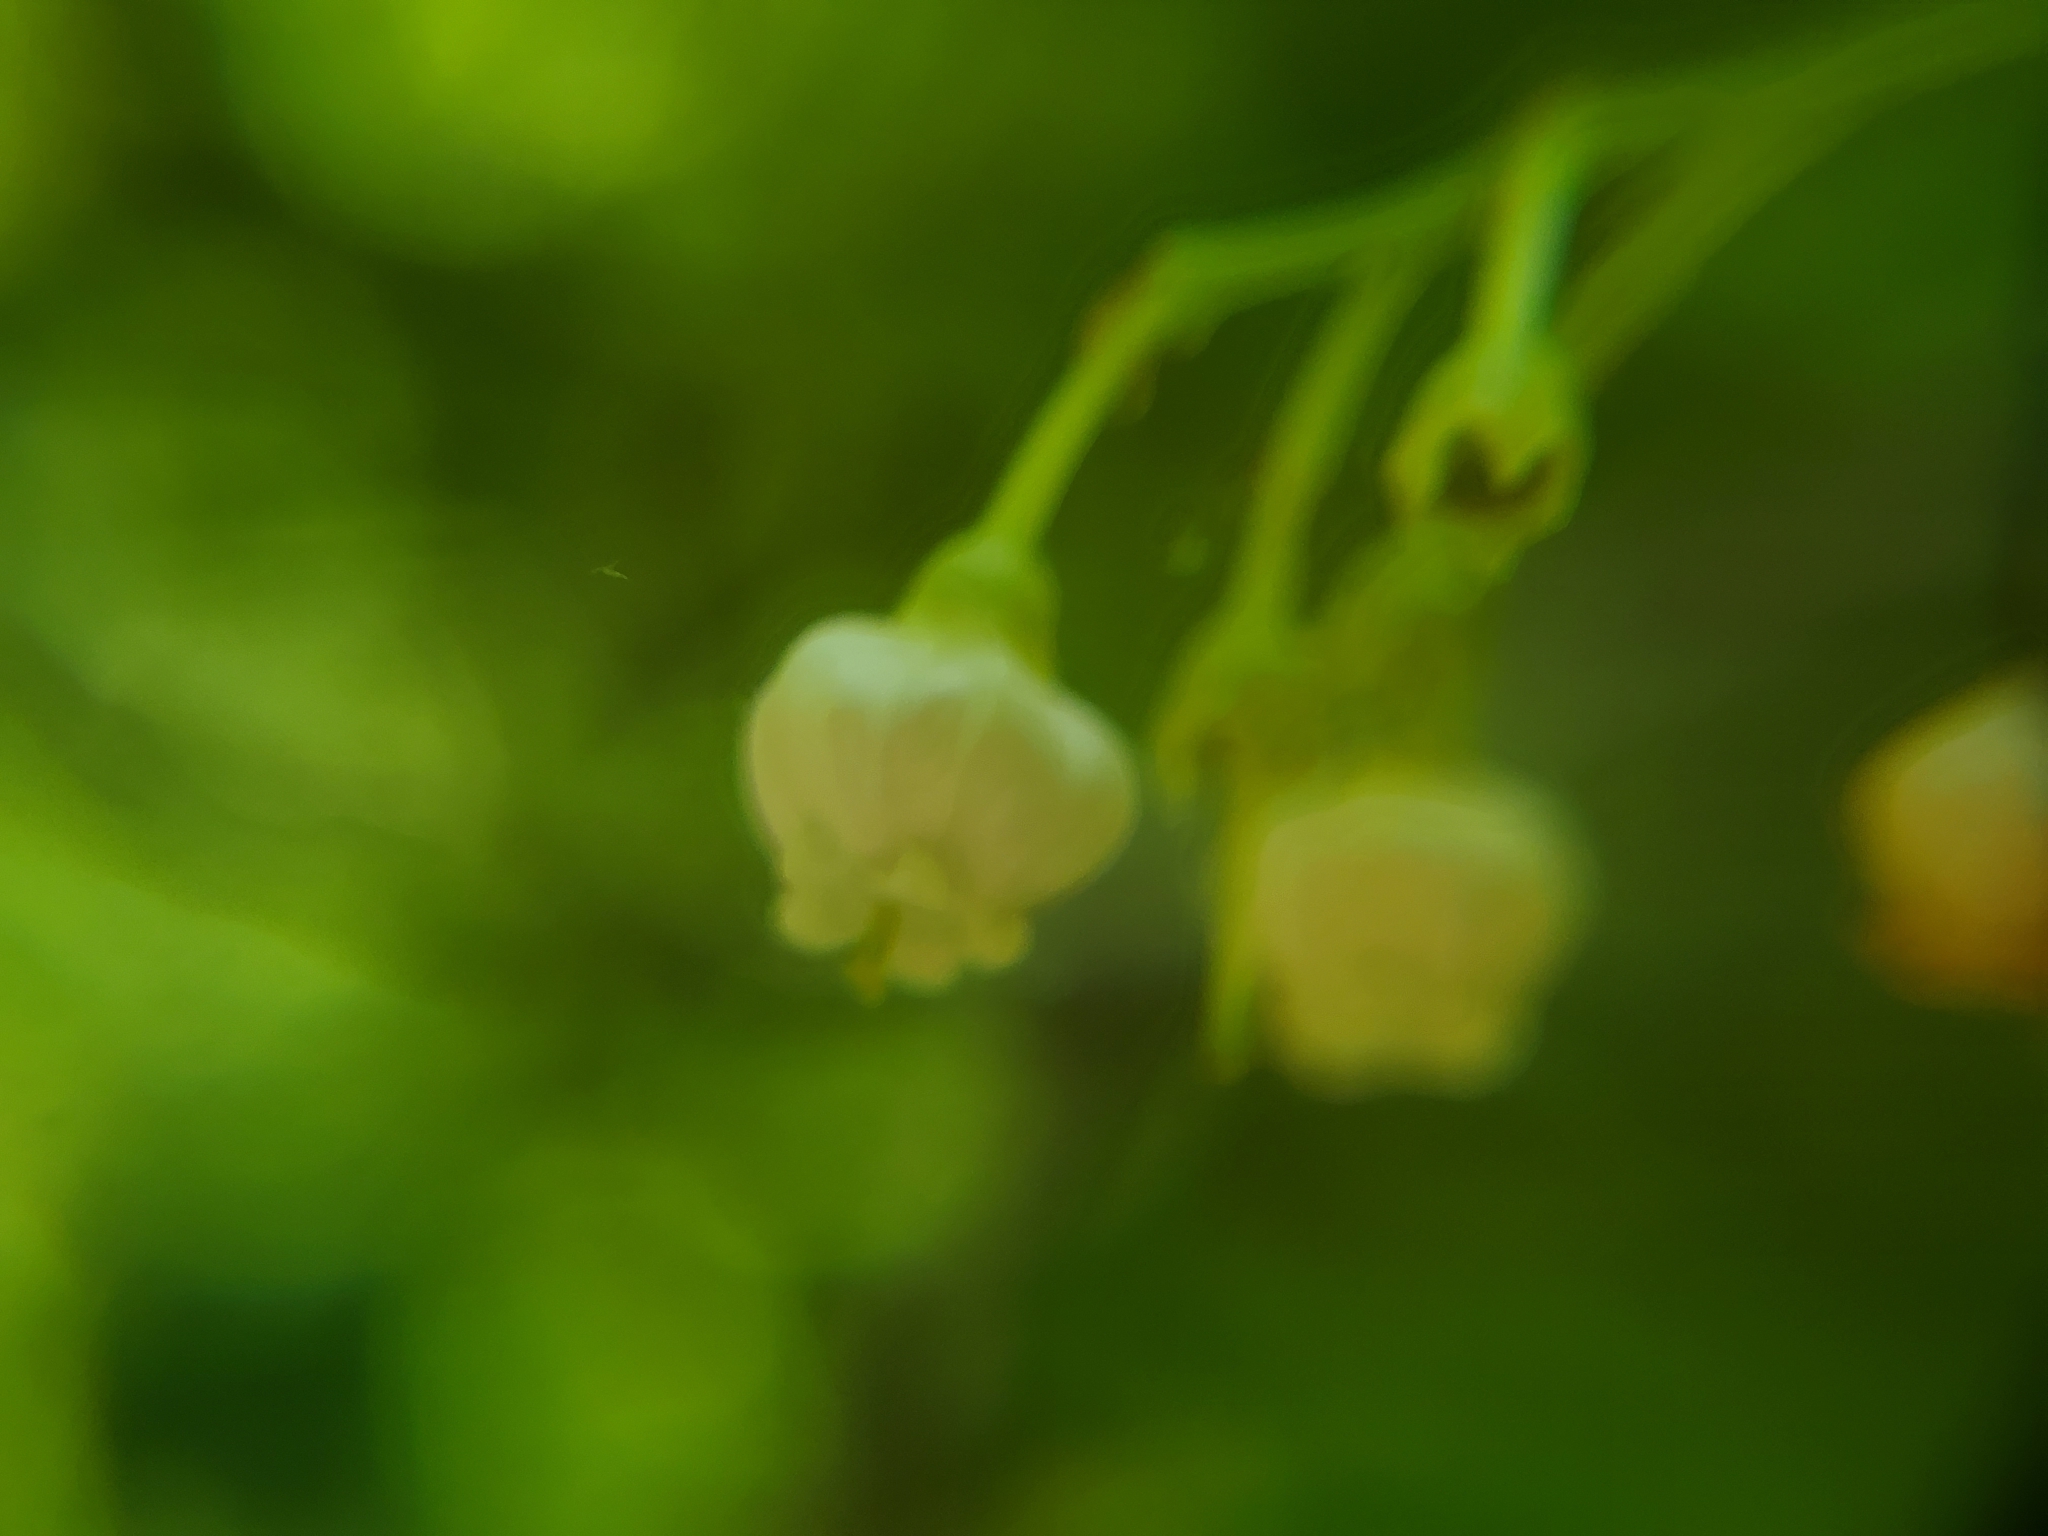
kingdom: Plantae
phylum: Tracheophyta
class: Magnoliopsida
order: Ericales
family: Ericaceae
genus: Vaccinium
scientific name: Vaccinium arboreum
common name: Farkleberry
